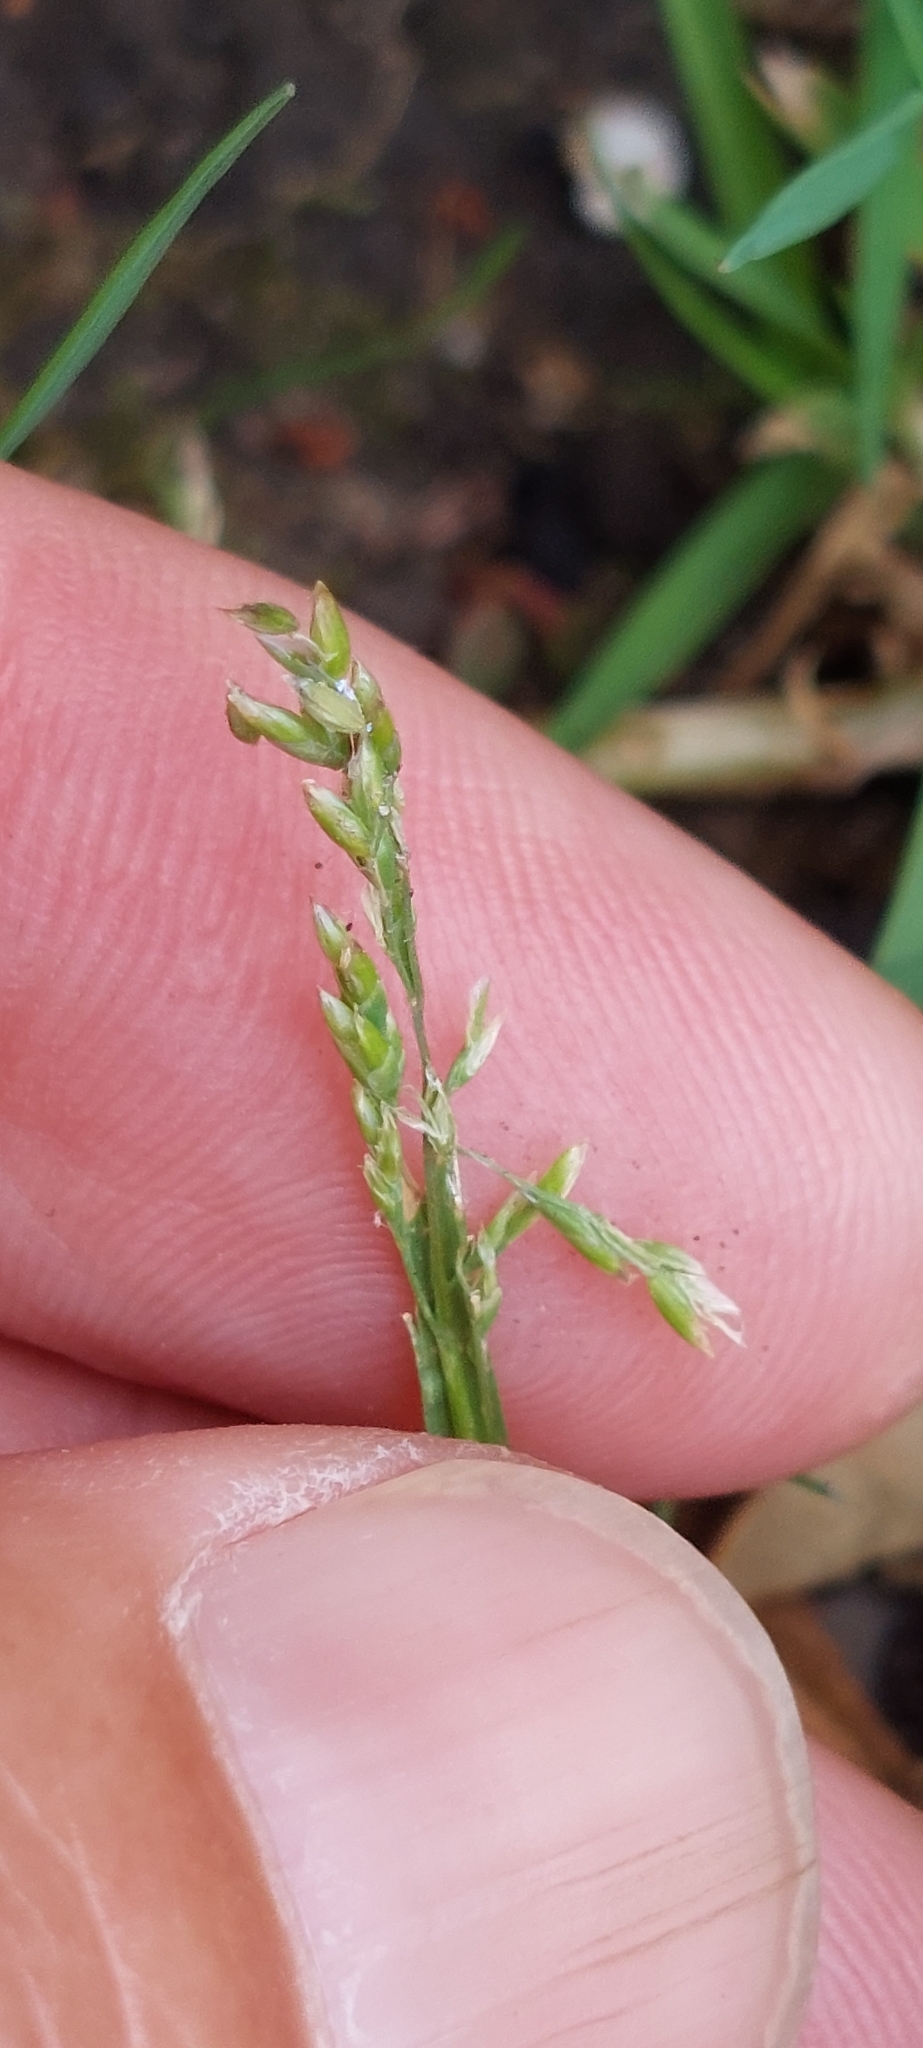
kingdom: Plantae
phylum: Tracheophyta
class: Liliopsida
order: Poales
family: Poaceae
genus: Poa
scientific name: Poa annua
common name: Annual bluegrass
